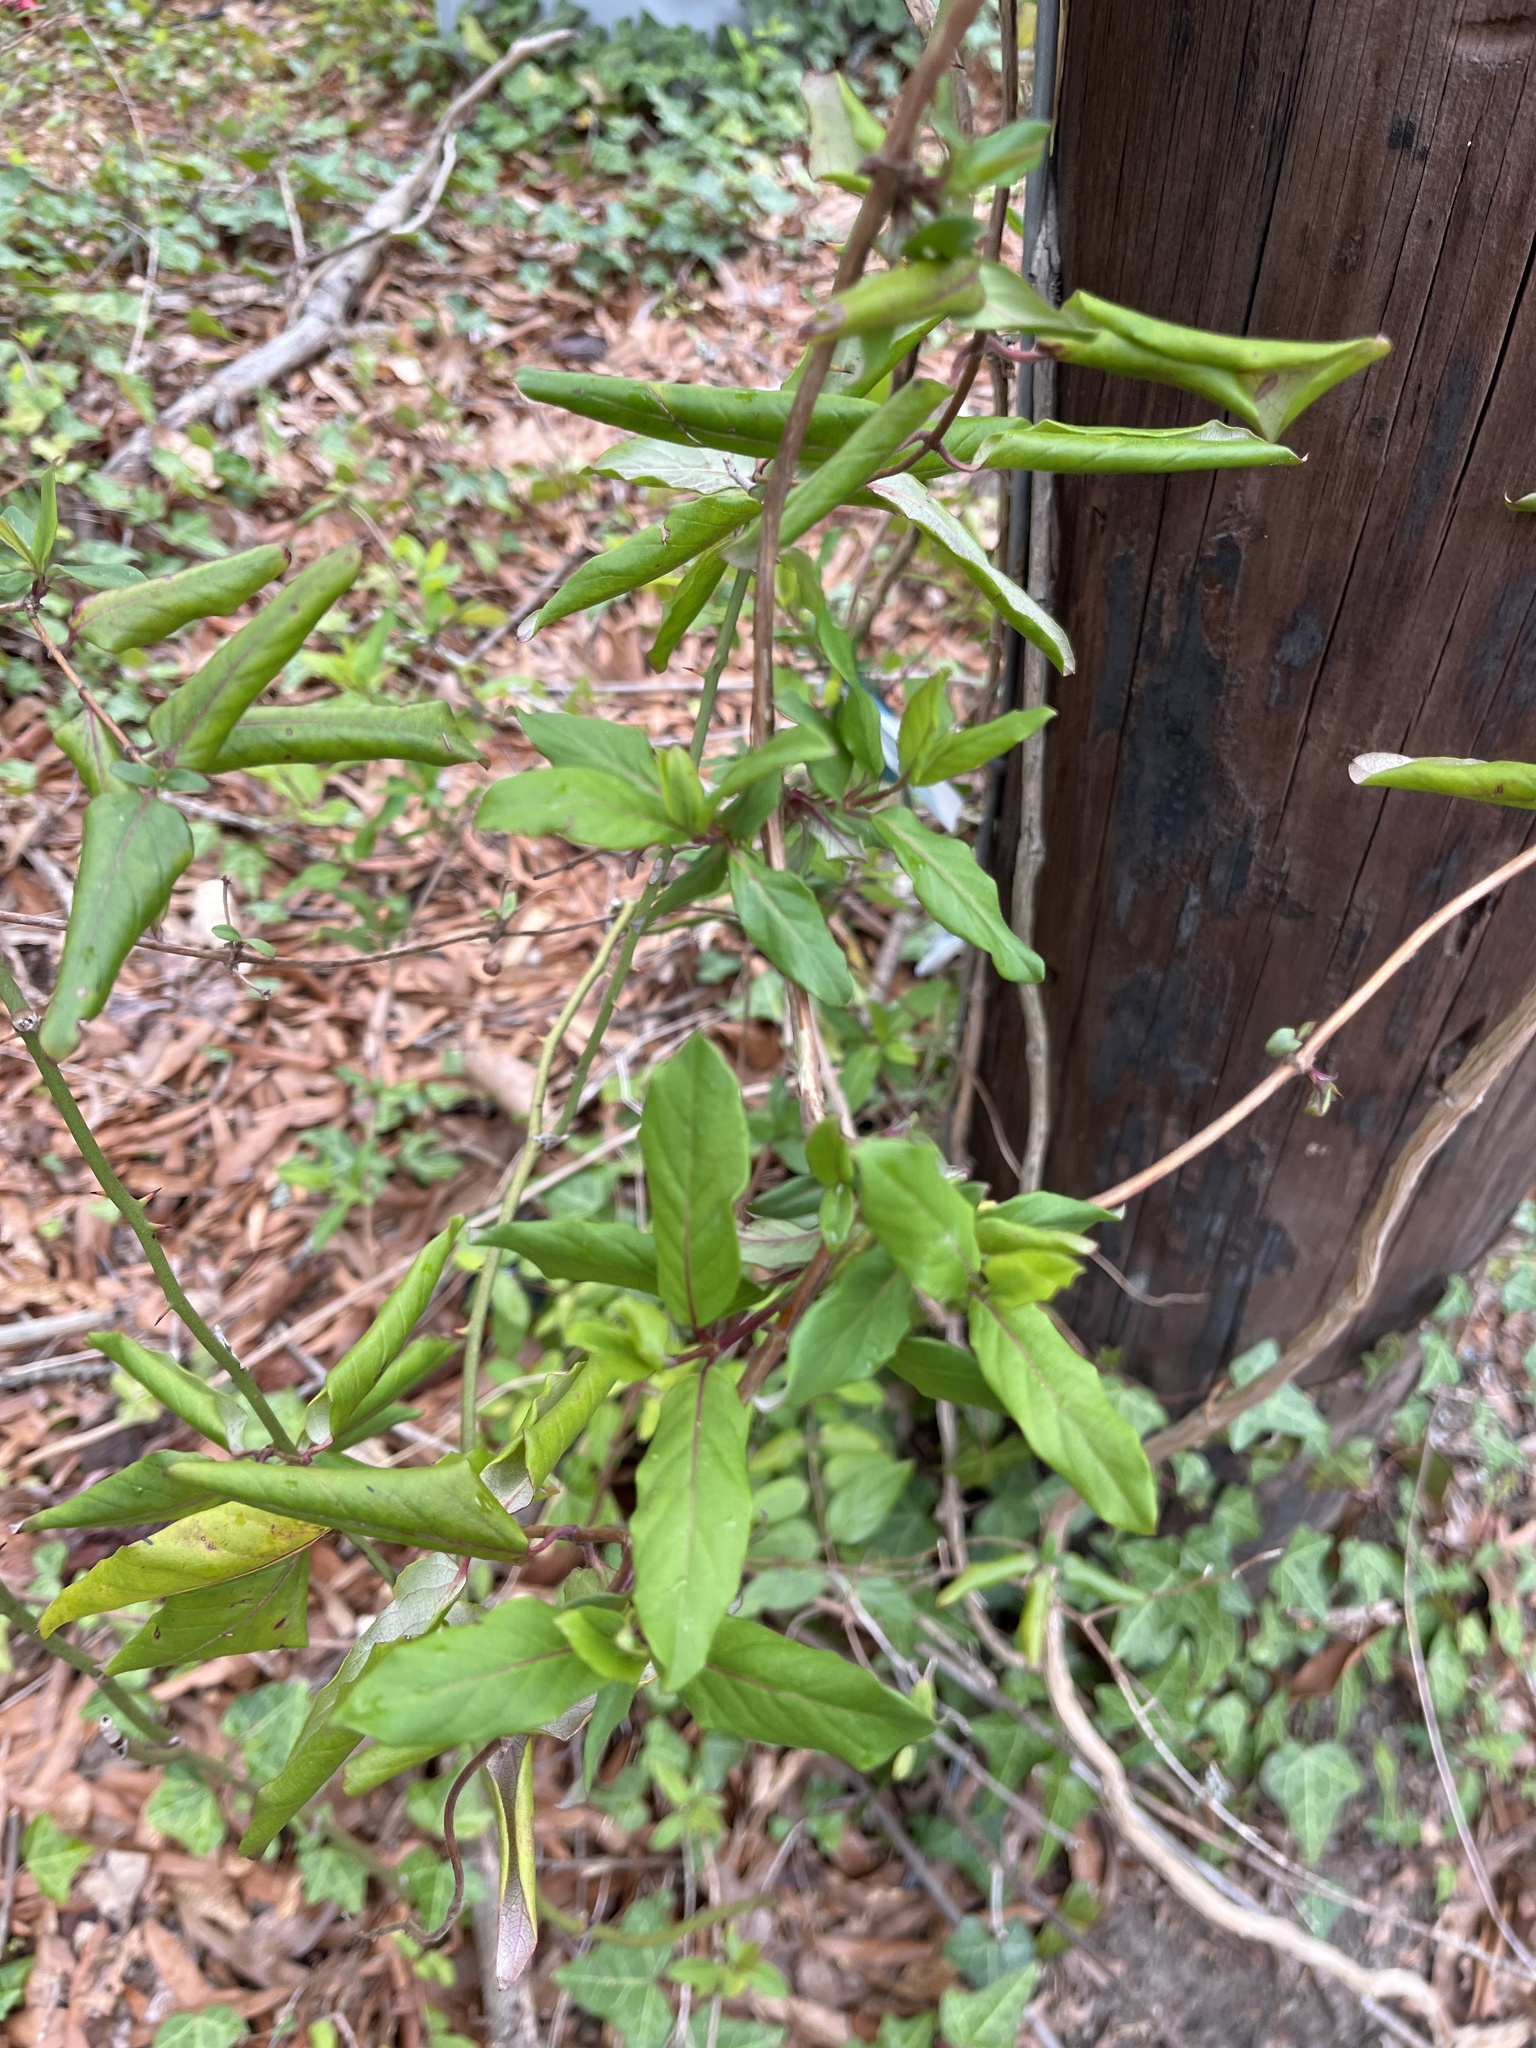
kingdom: Plantae
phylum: Tracheophyta
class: Magnoliopsida
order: Dipsacales
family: Caprifoliaceae
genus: Lonicera
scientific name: Lonicera japonica
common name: Japanese honeysuckle
